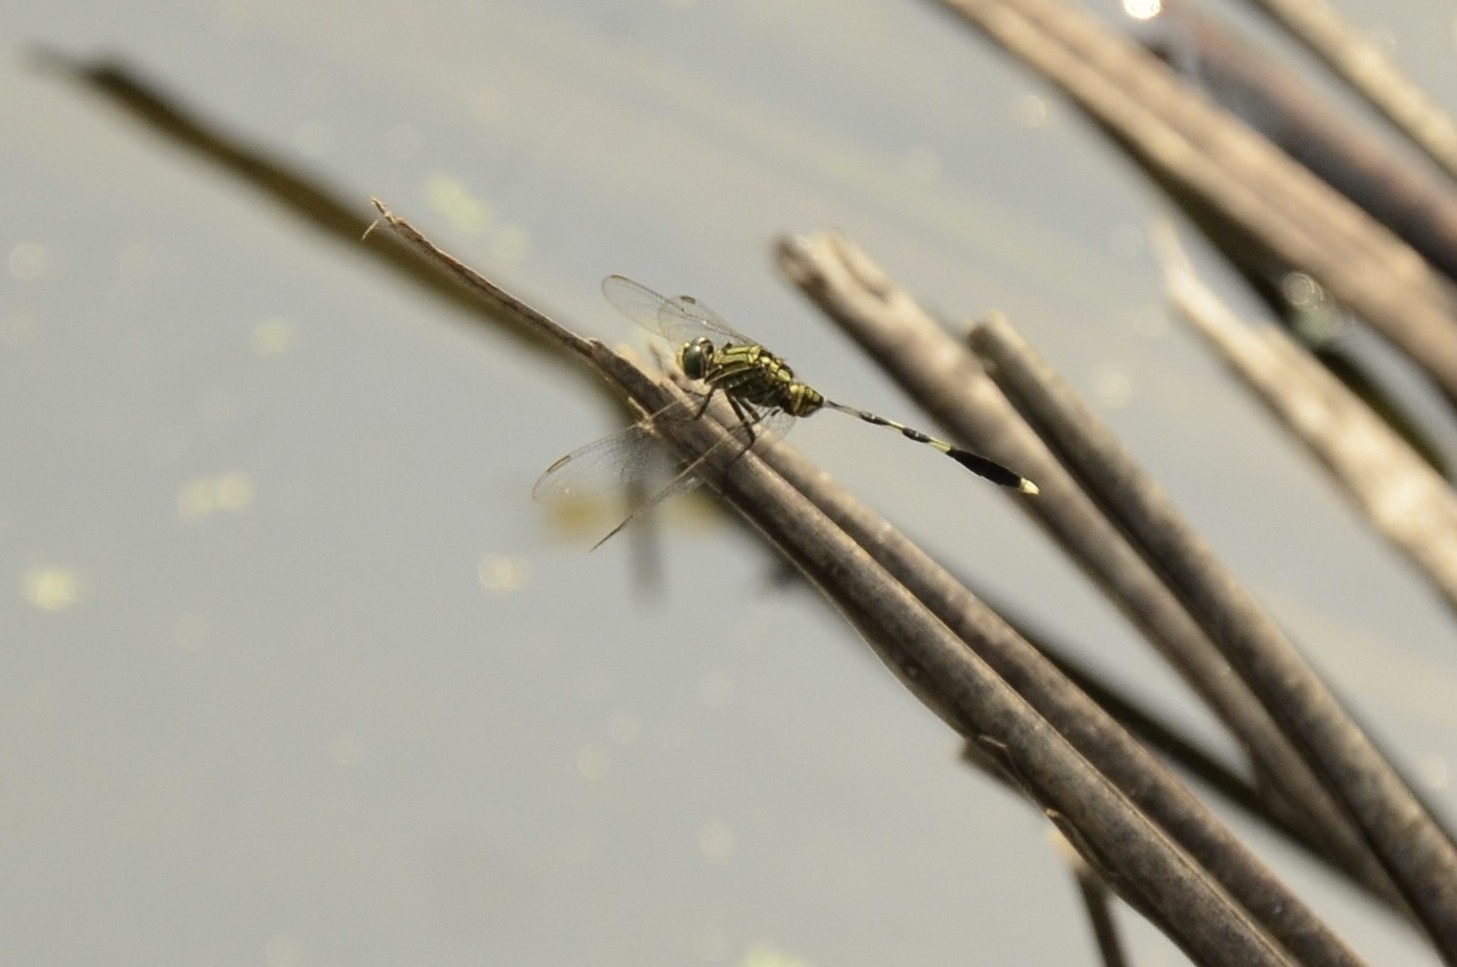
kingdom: Animalia
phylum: Arthropoda
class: Insecta
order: Odonata
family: Libellulidae
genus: Orthetrum
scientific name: Orthetrum sabina
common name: Slender skimmer
